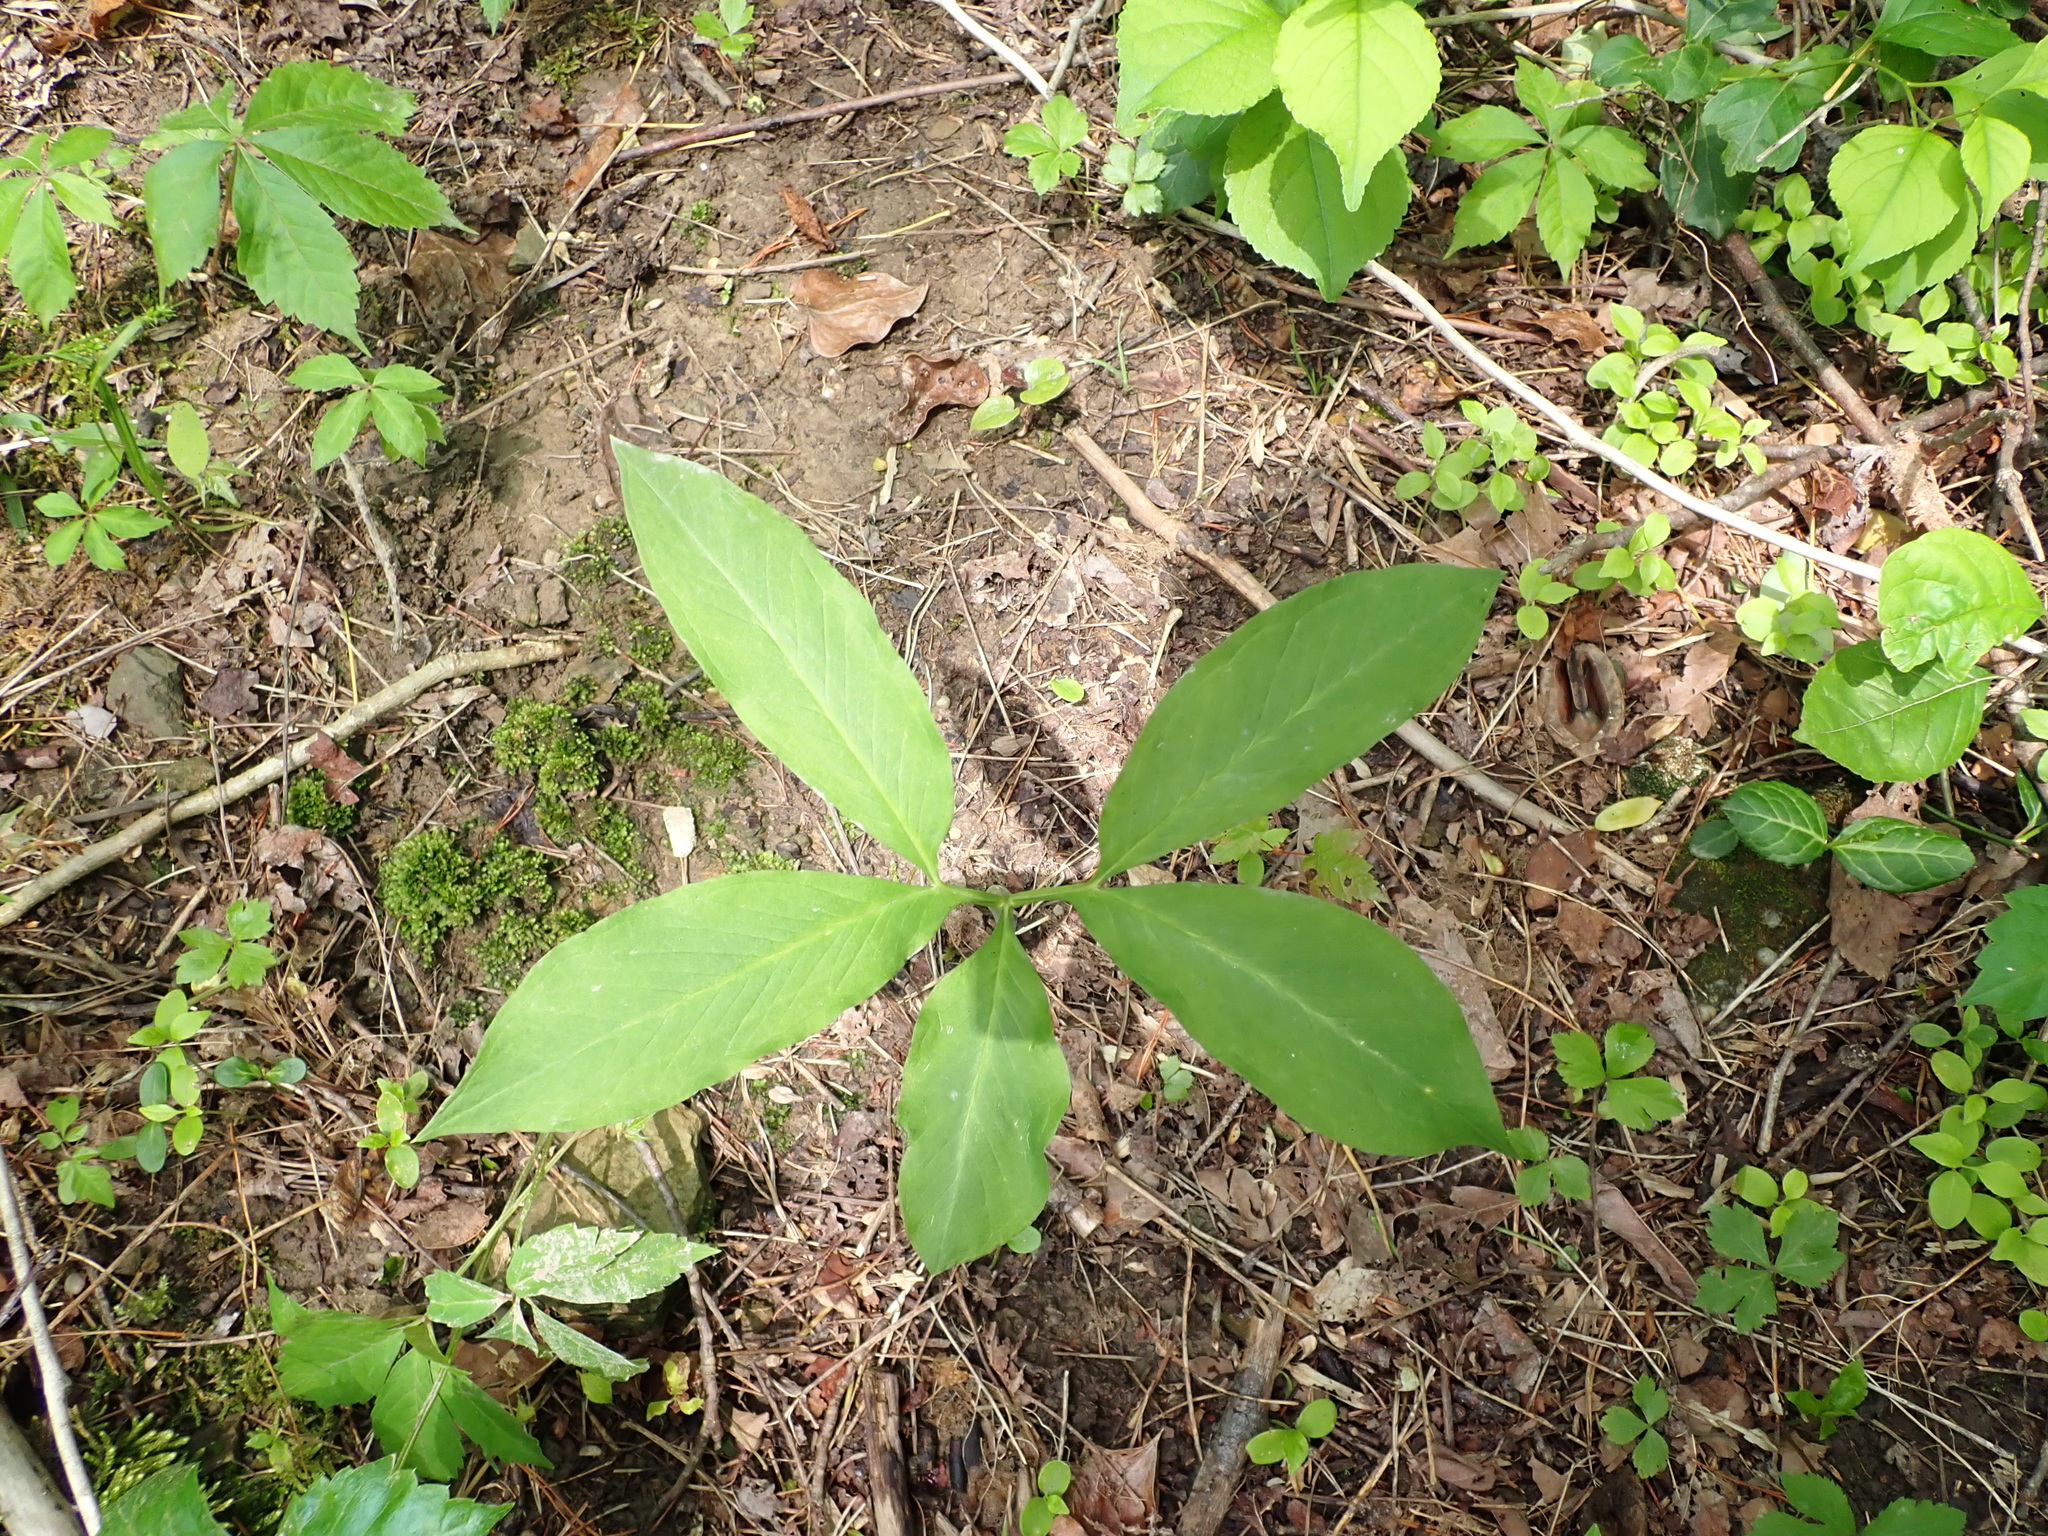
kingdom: Plantae
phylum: Tracheophyta
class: Liliopsida
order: Alismatales
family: Araceae
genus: Arisaema
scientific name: Arisaema dracontium
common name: Dragon-arum
